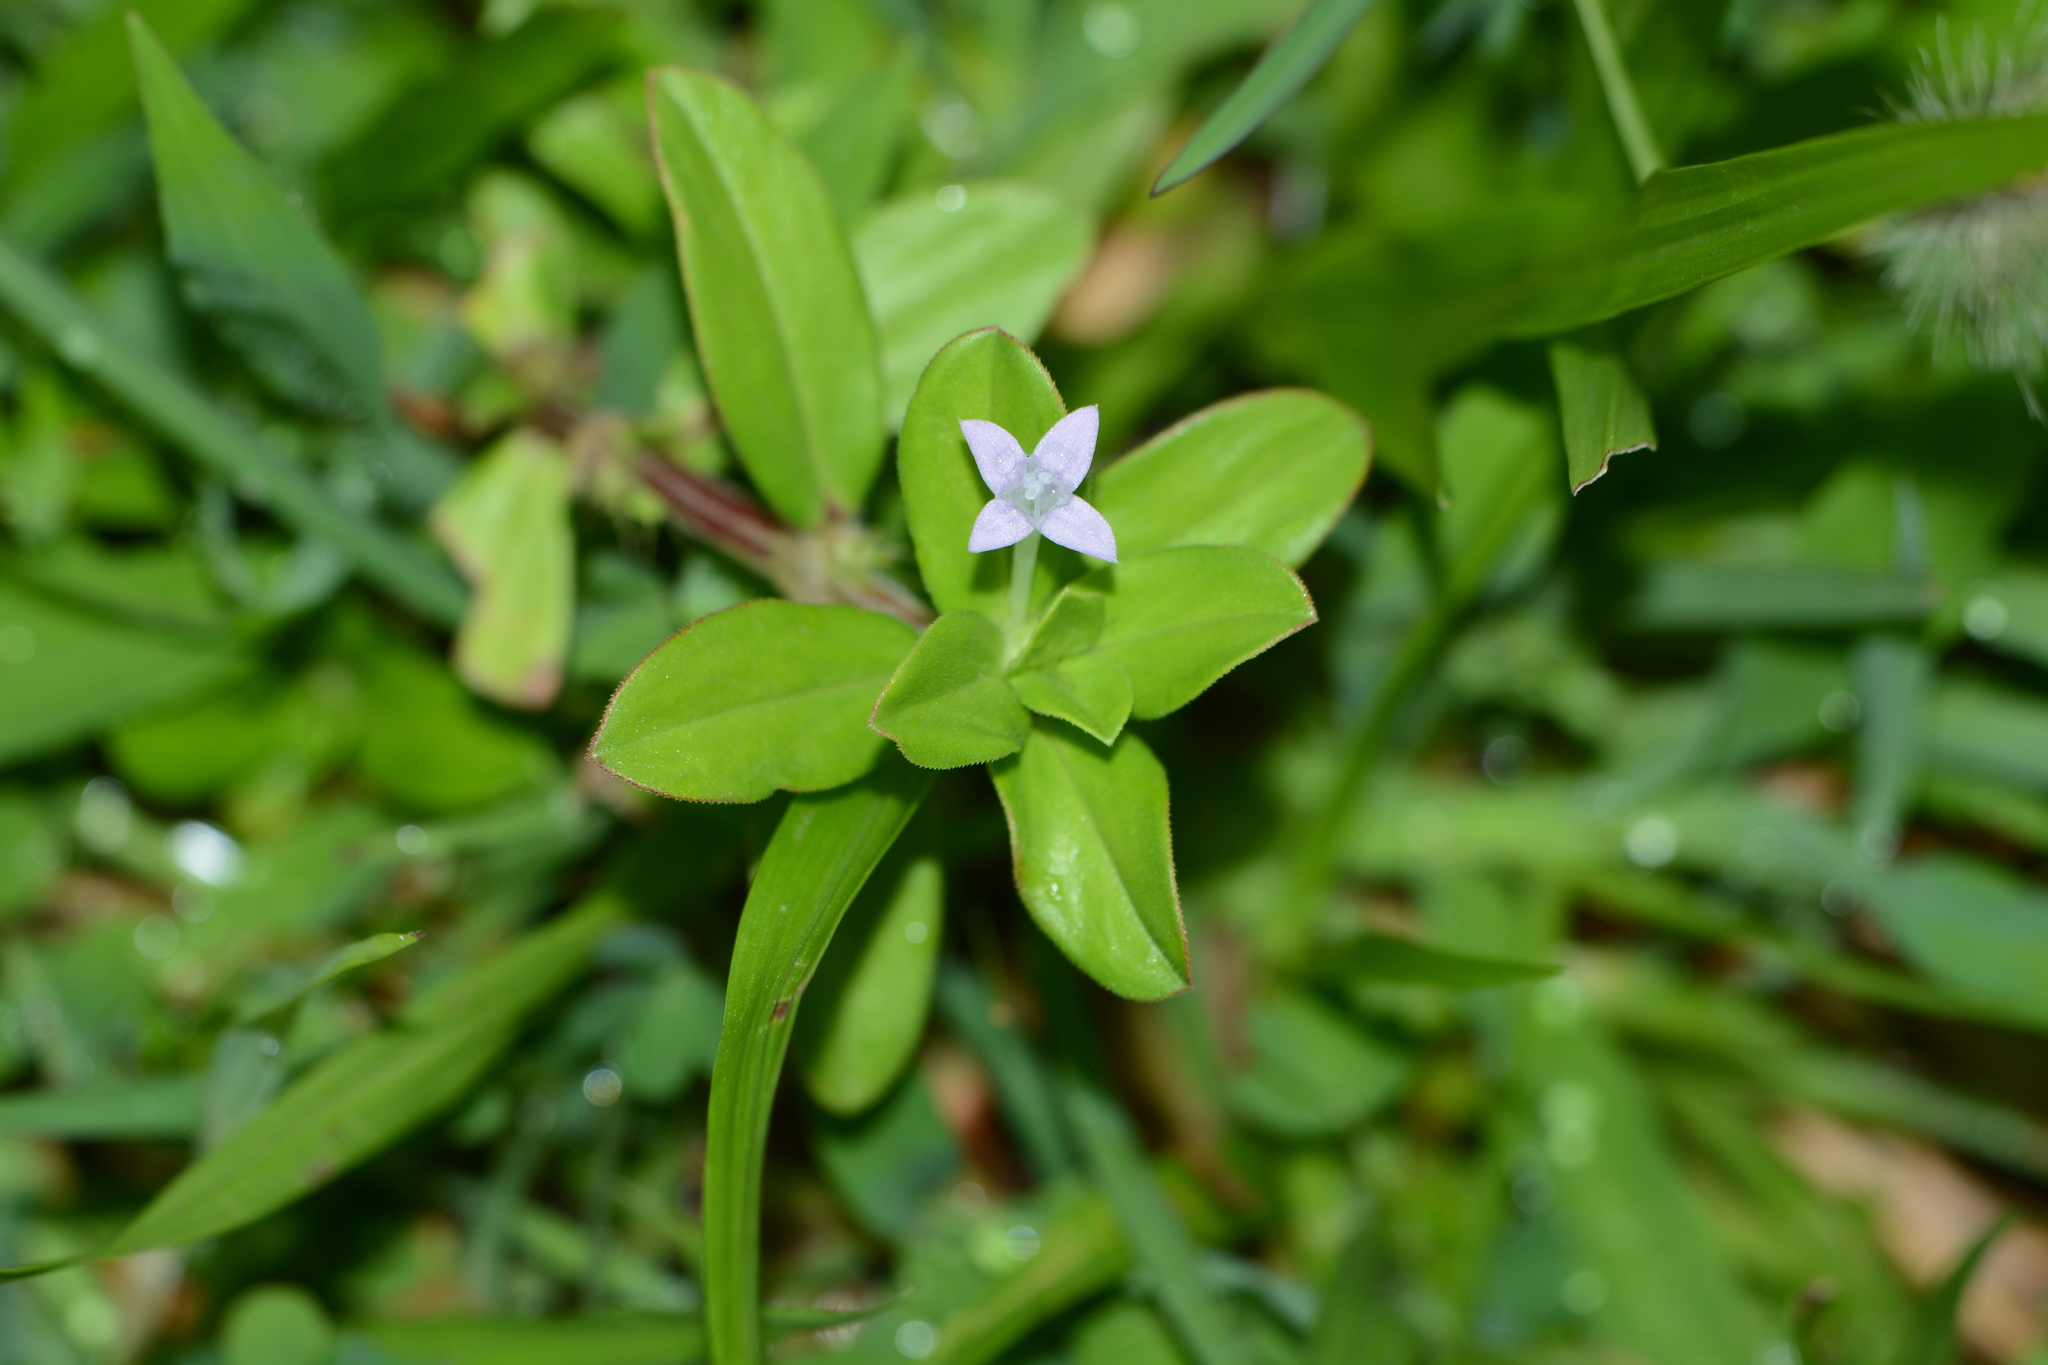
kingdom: Plantae
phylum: Tracheophyta
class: Magnoliopsida
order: Gentianales
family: Rubiaceae
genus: Spermacoce
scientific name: Spermacoce articularis
